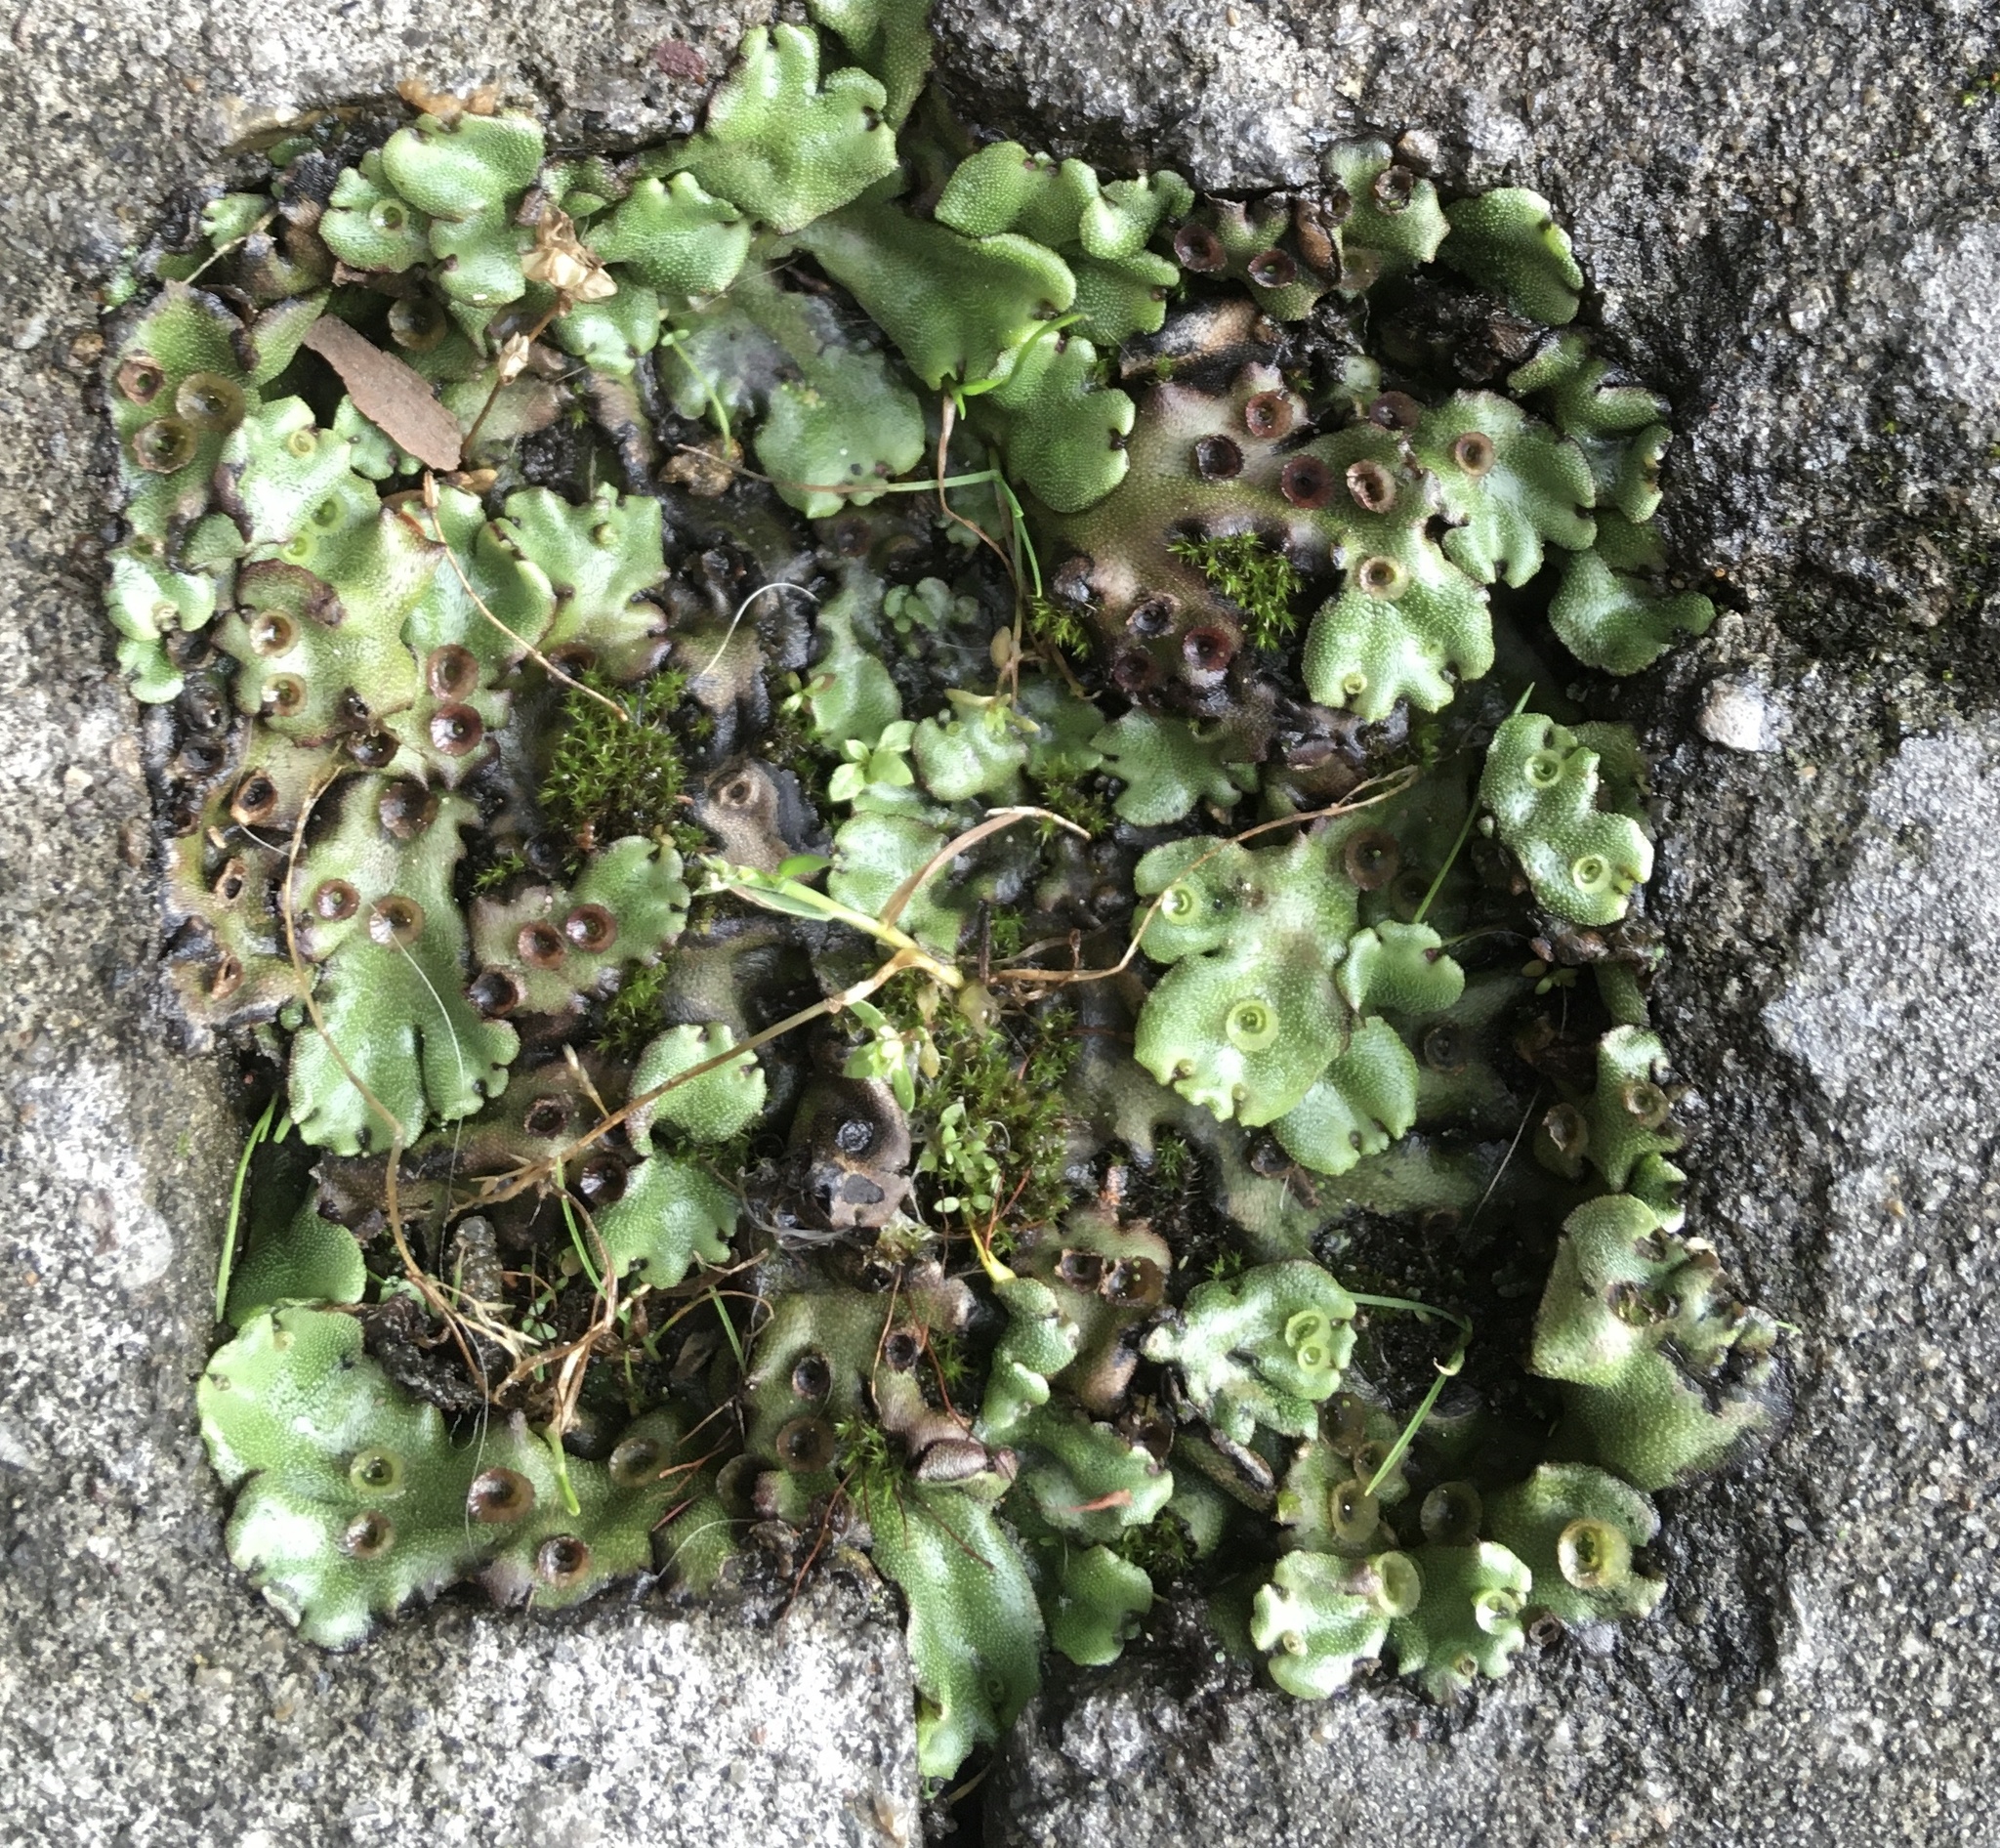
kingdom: Plantae
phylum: Marchantiophyta
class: Marchantiopsida
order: Marchantiales
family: Marchantiaceae
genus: Marchantia
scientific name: Marchantia polymorpha
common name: Common liverwort
